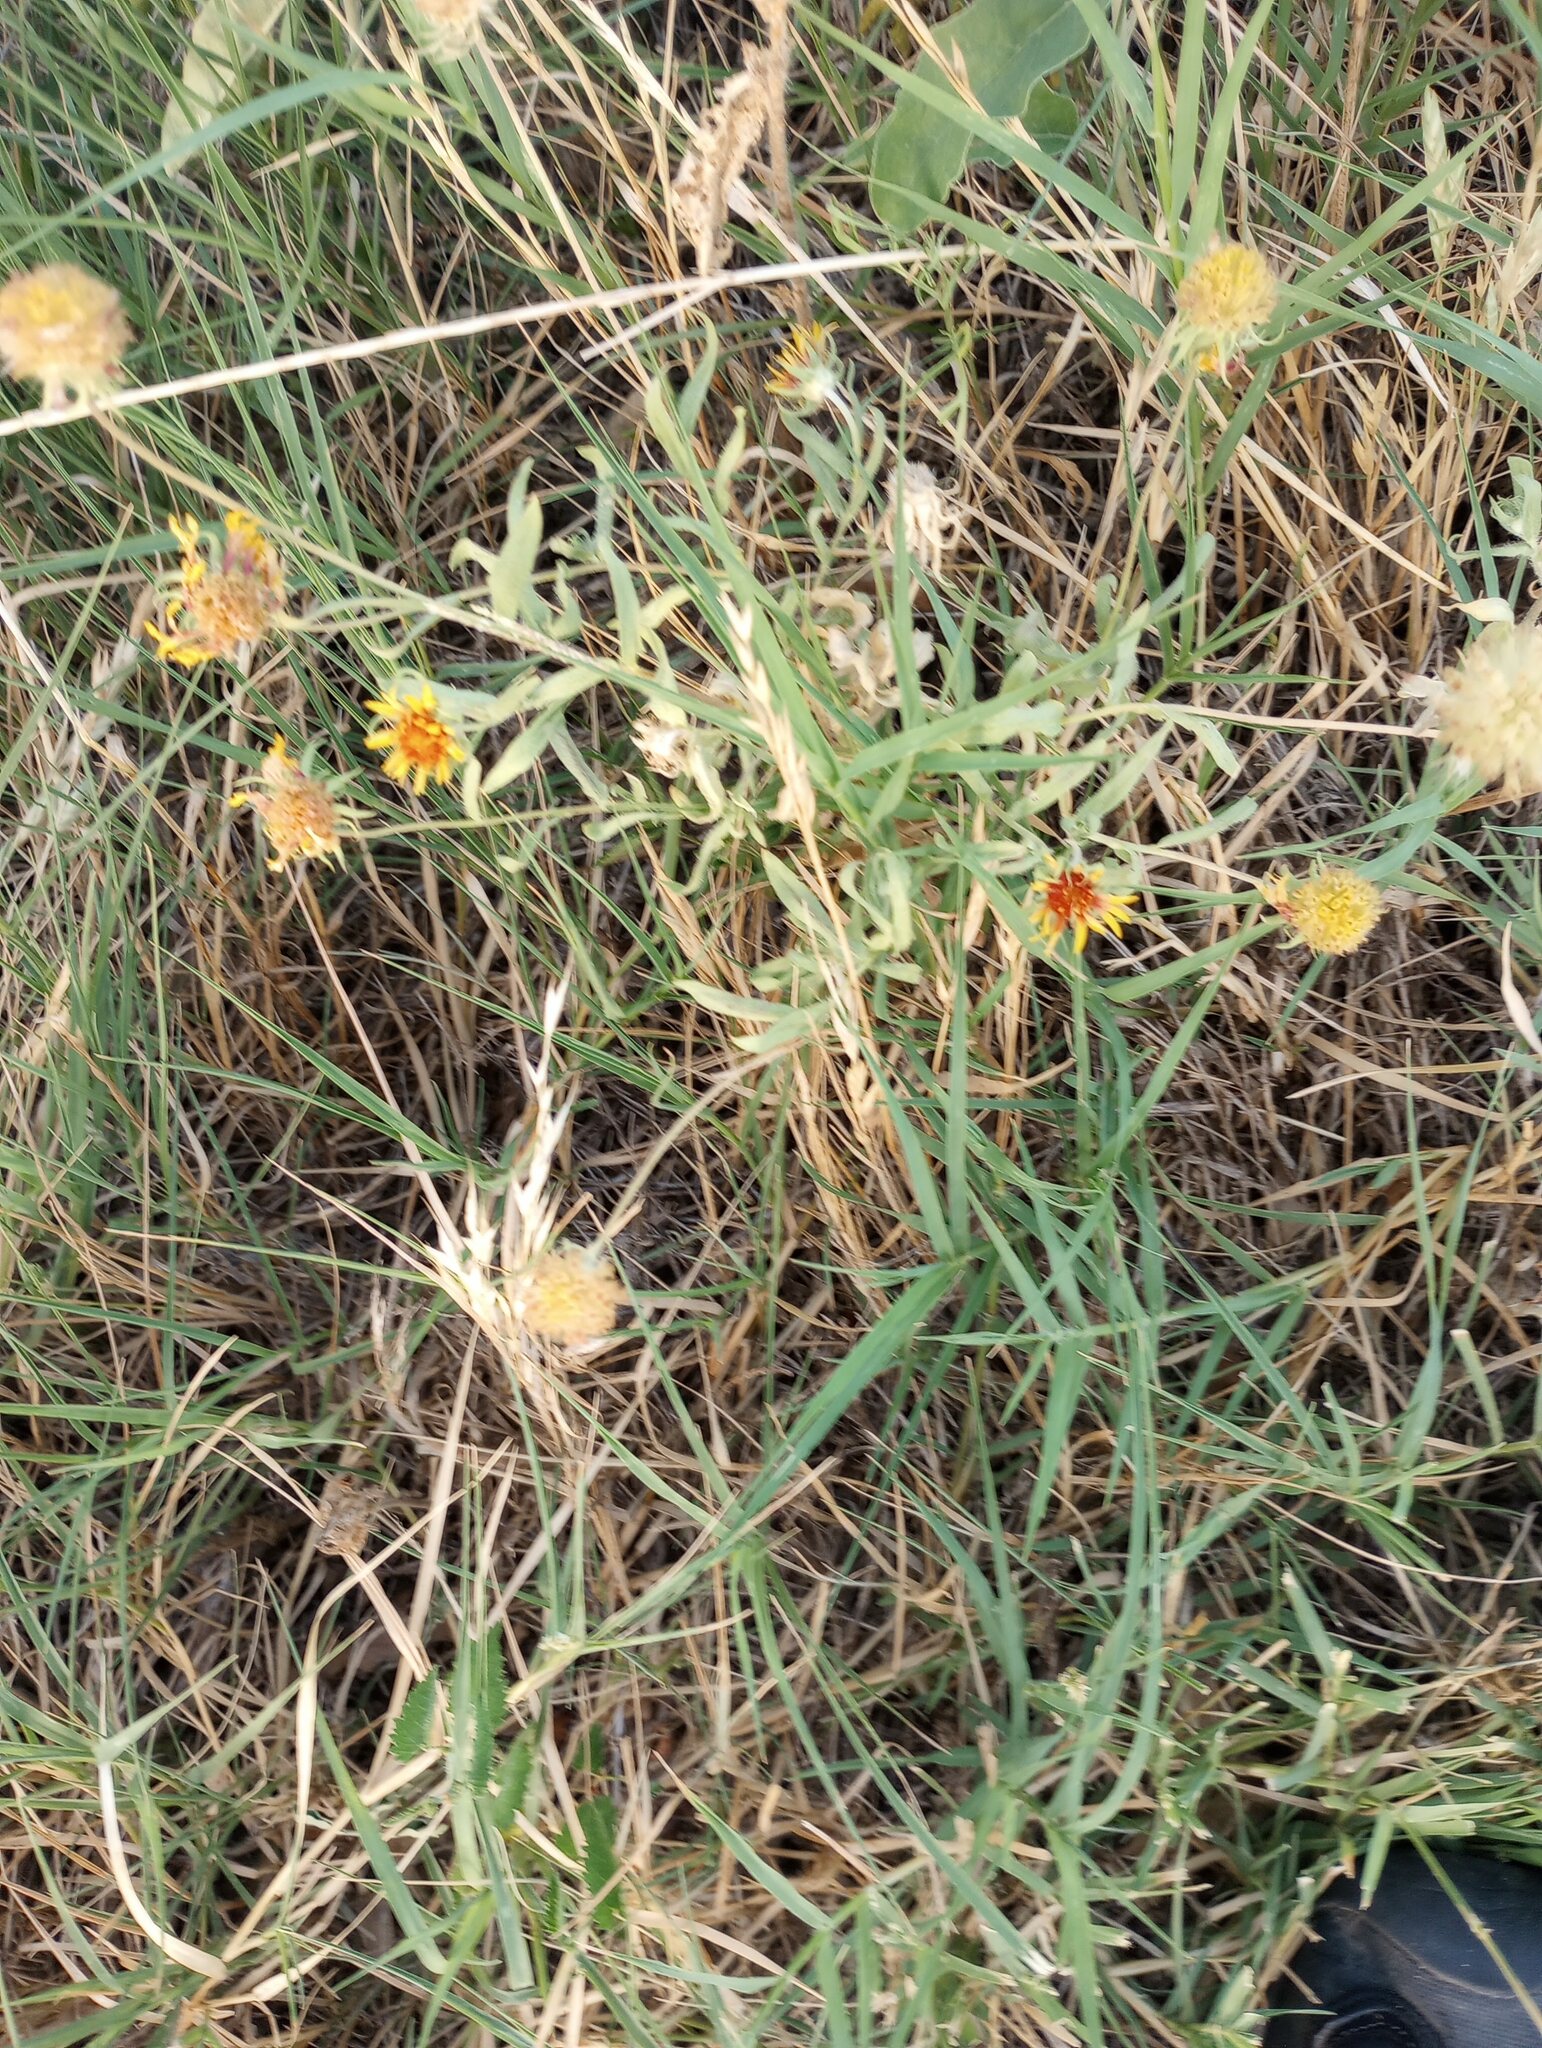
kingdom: Plantae
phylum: Tracheophyta
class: Magnoliopsida
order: Asterales
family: Asteraceae
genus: Gaillardia
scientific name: Gaillardia pulchella
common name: Firewheel
